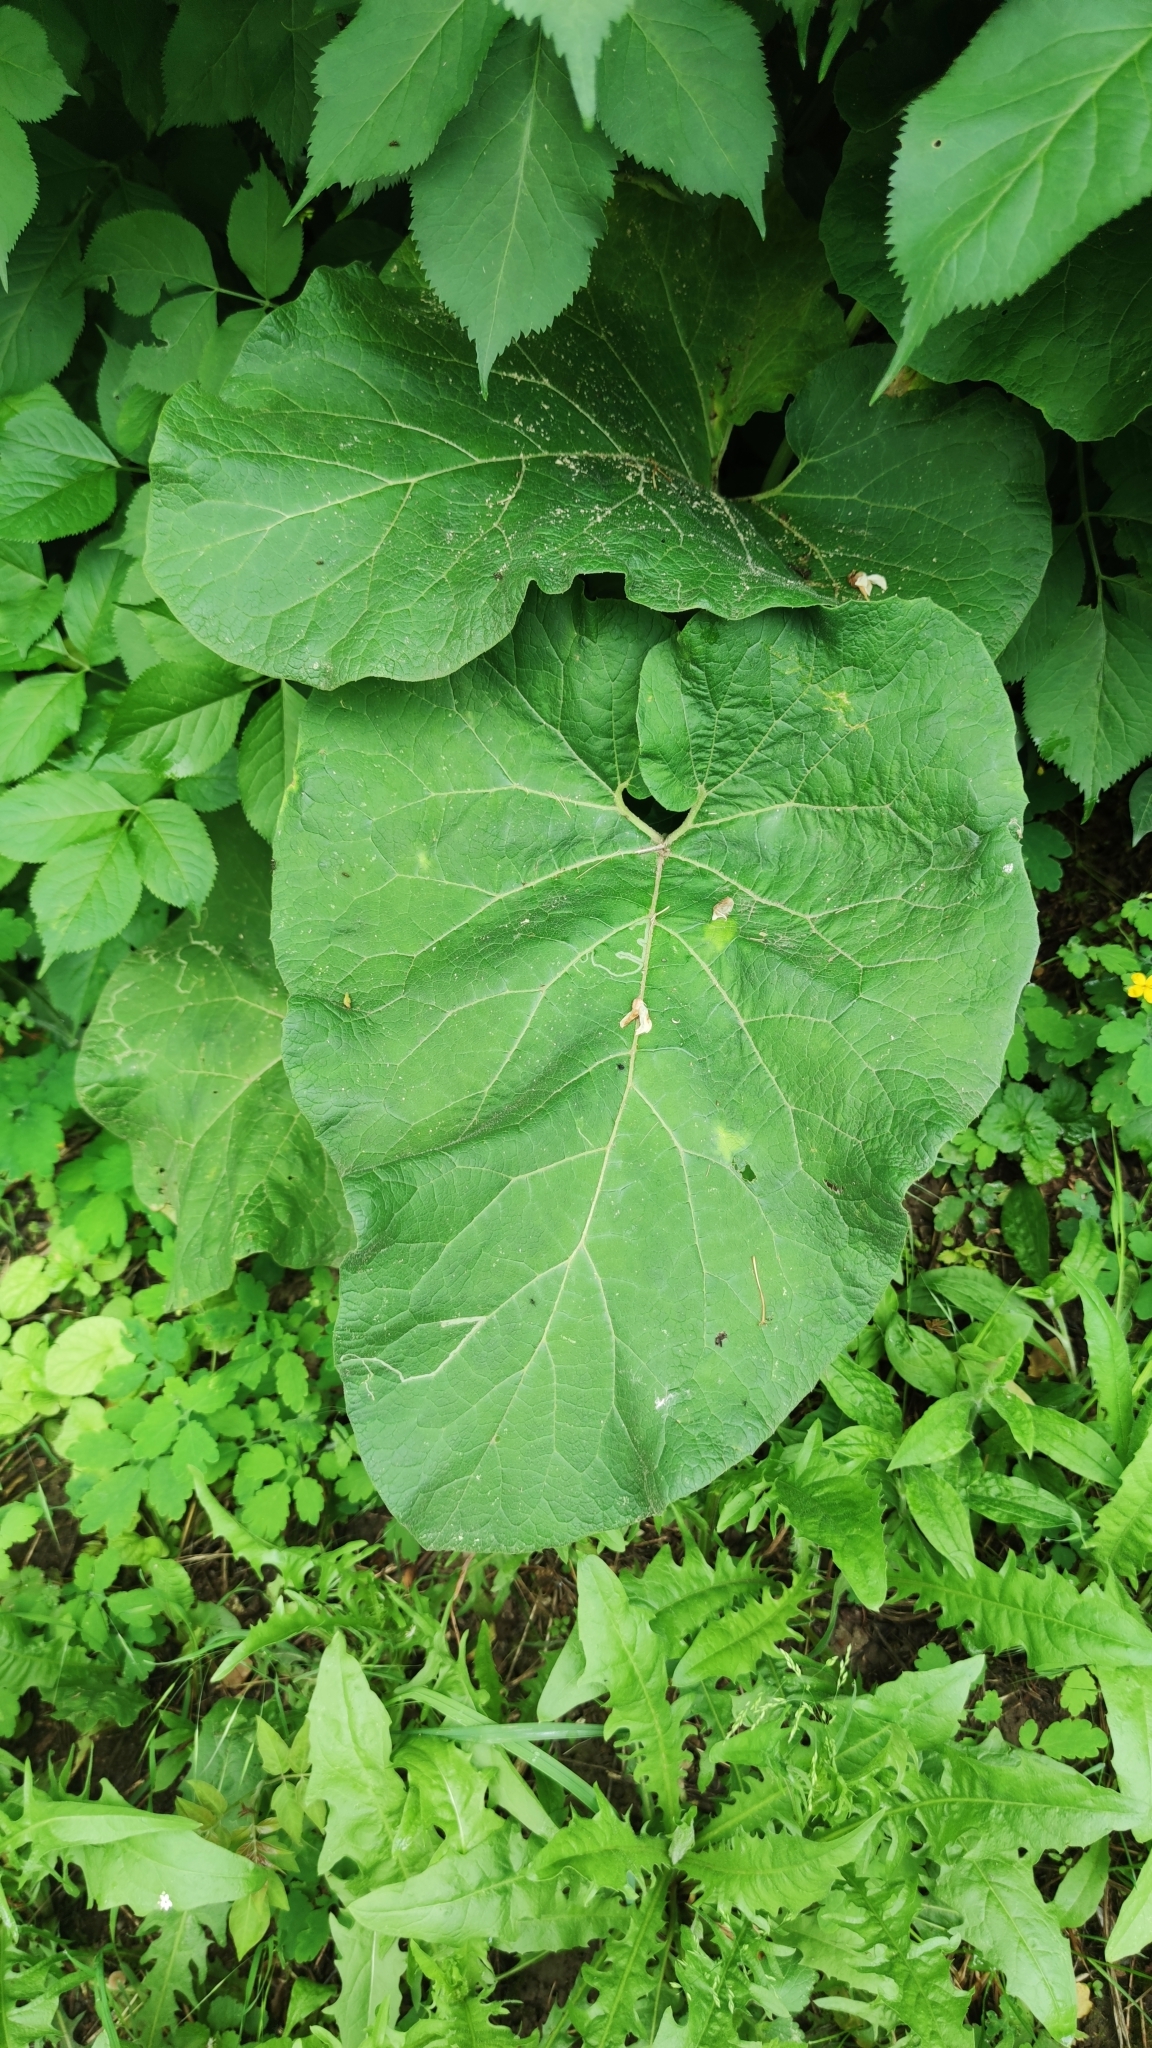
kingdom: Plantae
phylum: Tracheophyta
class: Magnoliopsida
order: Asterales
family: Asteraceae
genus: Arctium
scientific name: Arctium
